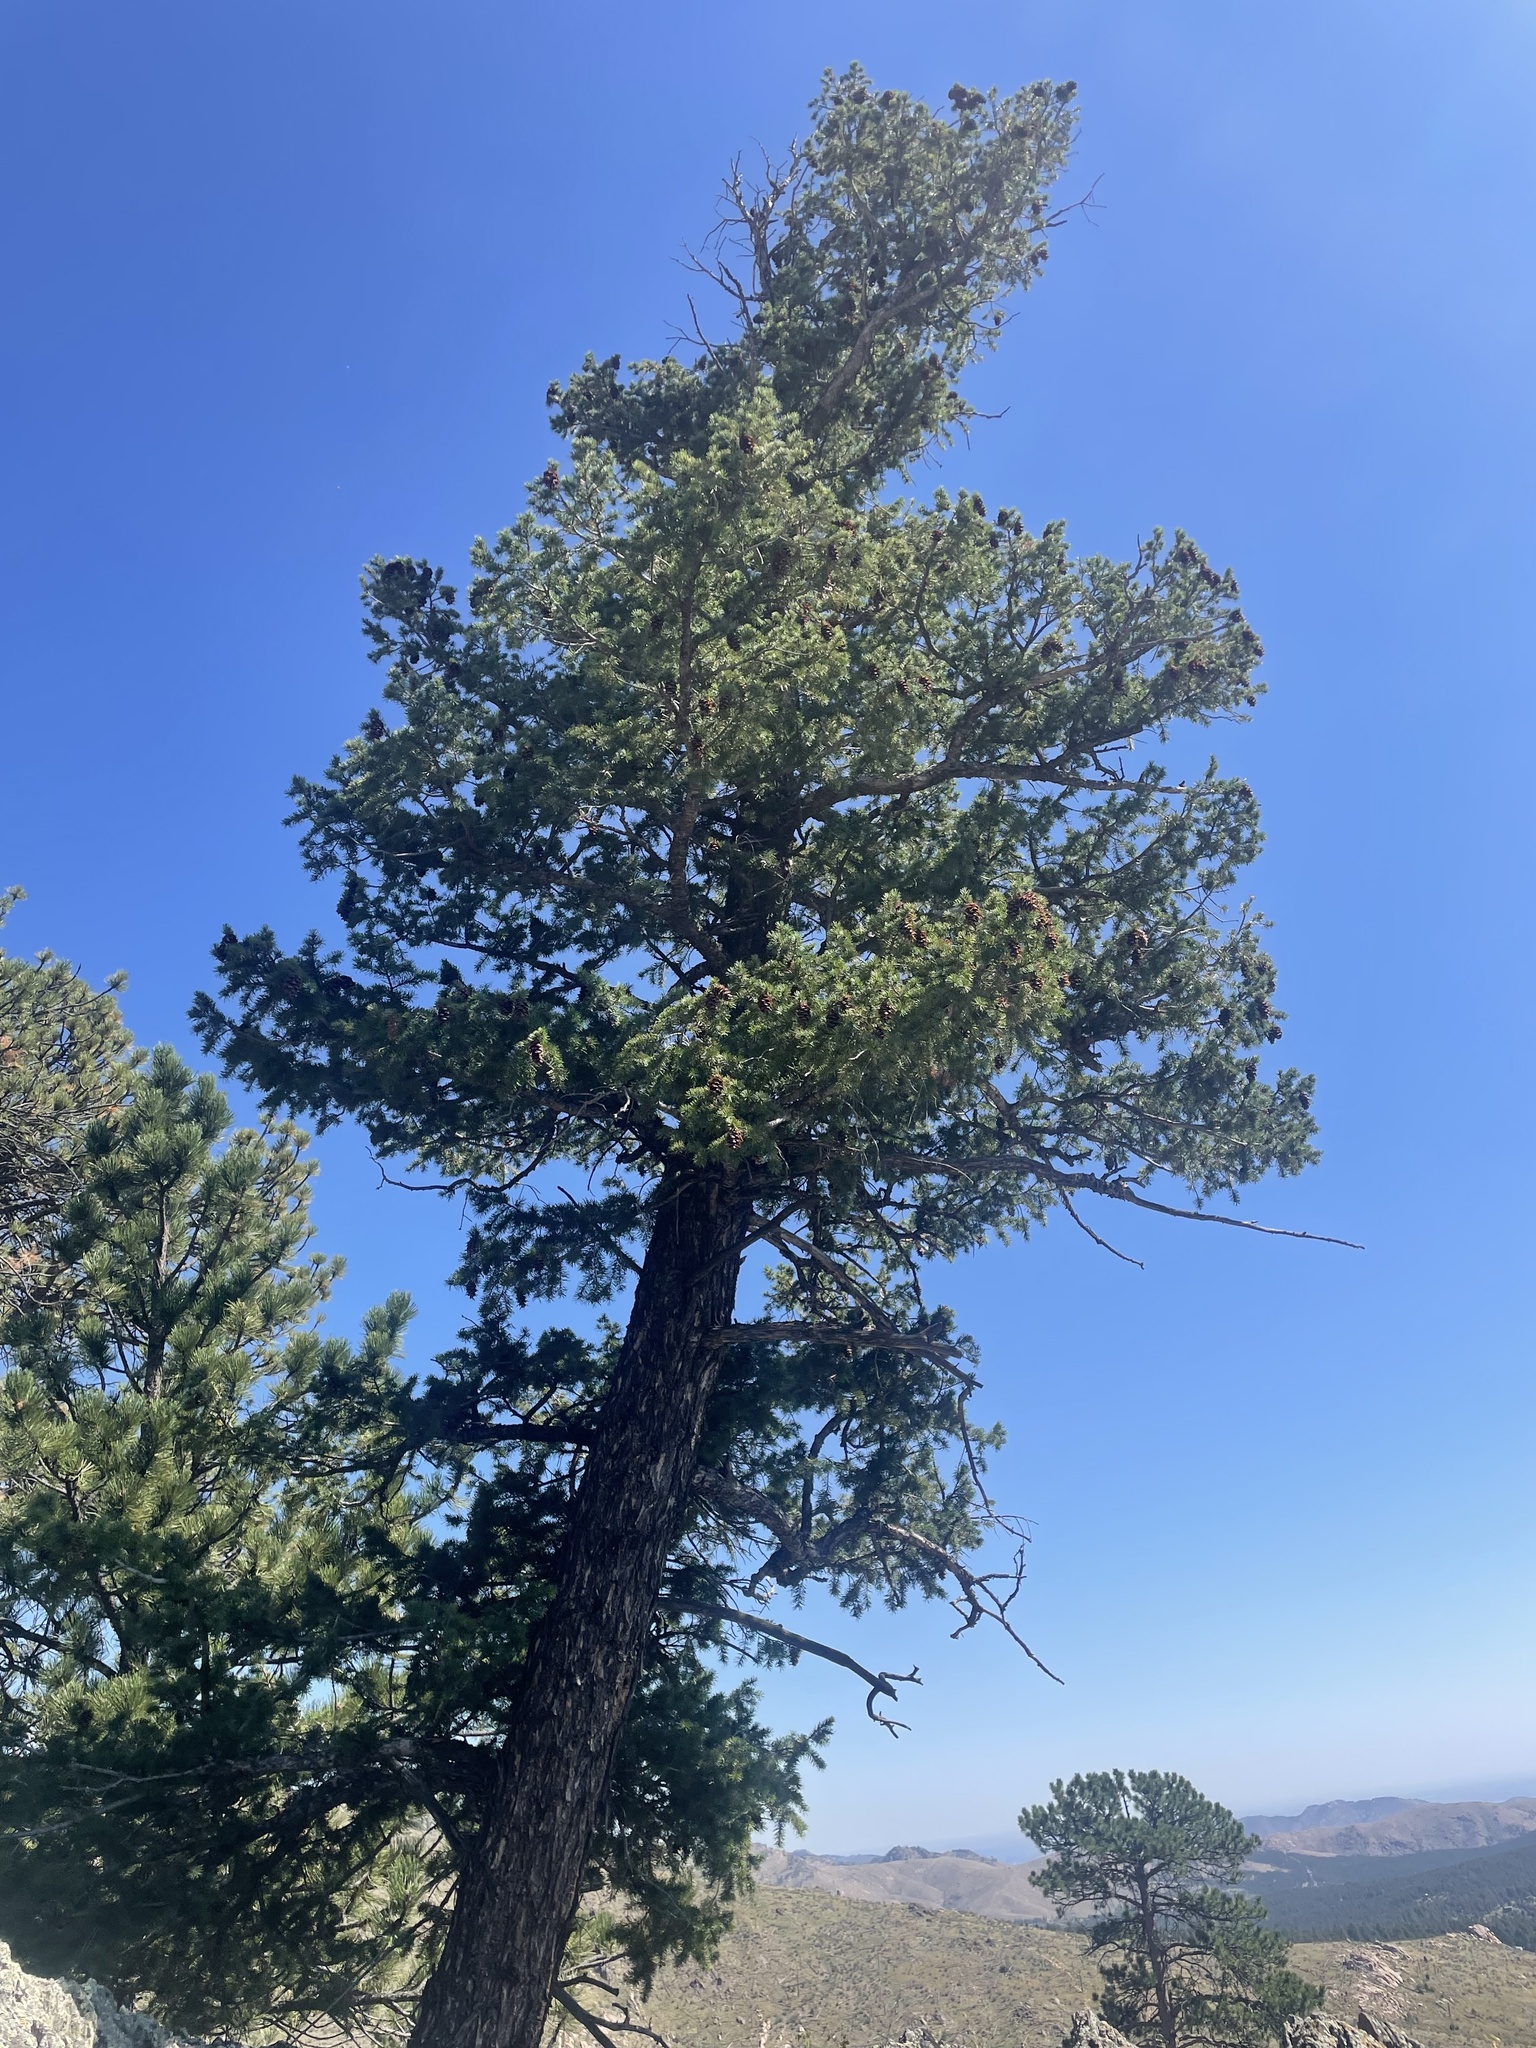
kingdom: Plantae
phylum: Tracheophyta
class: Pinopsida
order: Pinales
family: Pinaceae
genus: Pseudotsuga
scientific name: Pseudotsuga menziesii
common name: Douglas fir
